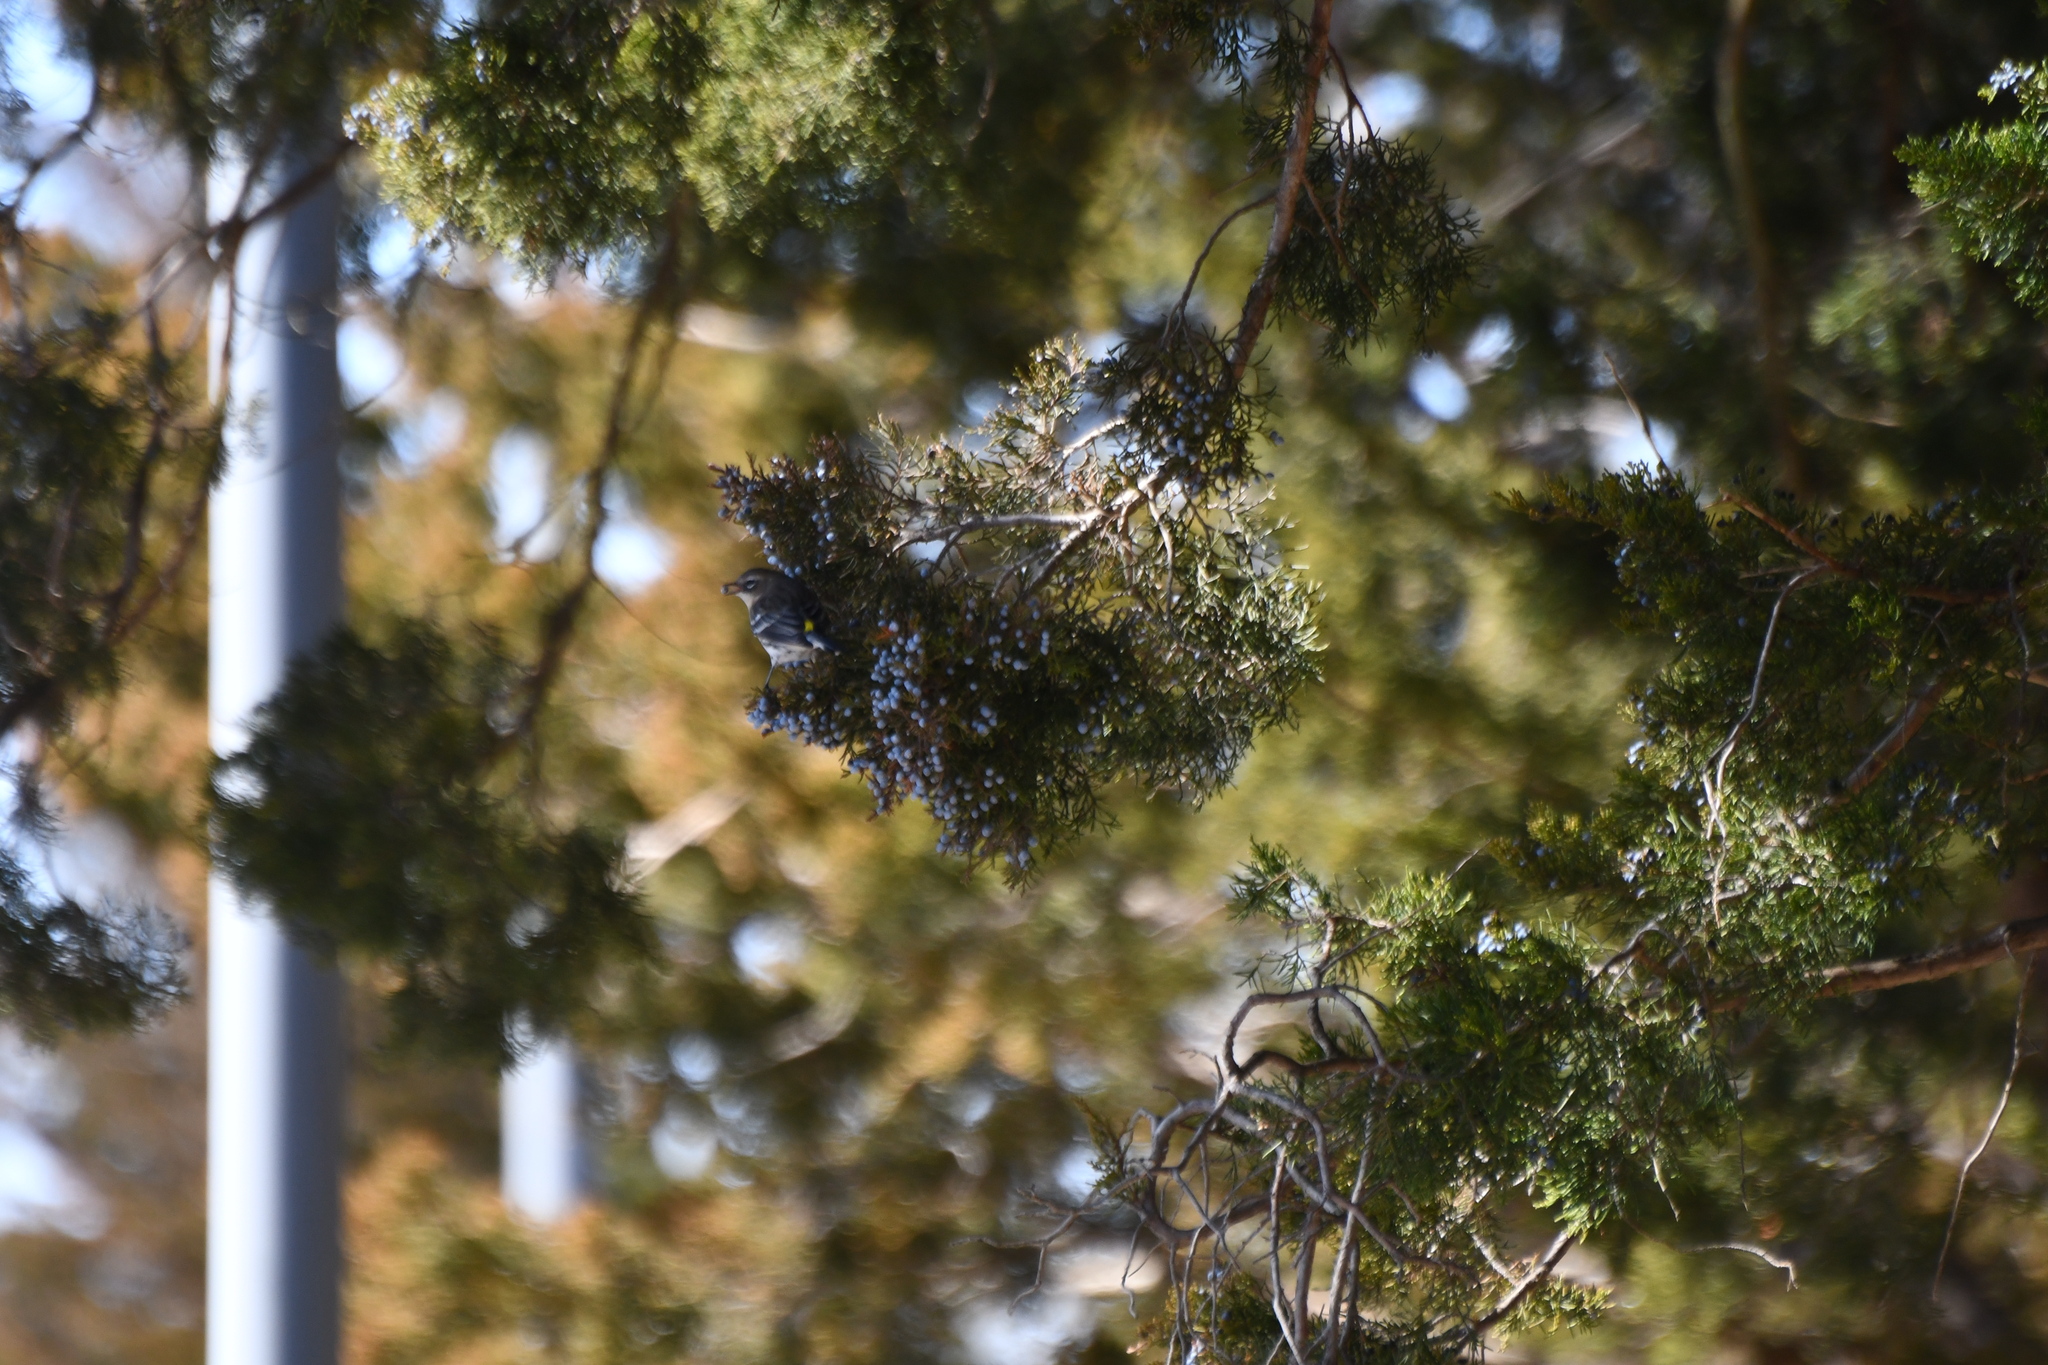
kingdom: Animalia
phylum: Chordata
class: Aves
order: Passeriformes
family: Parulidae
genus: Setophaga
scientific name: Setophaga coronata
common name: Myrtle warbler
